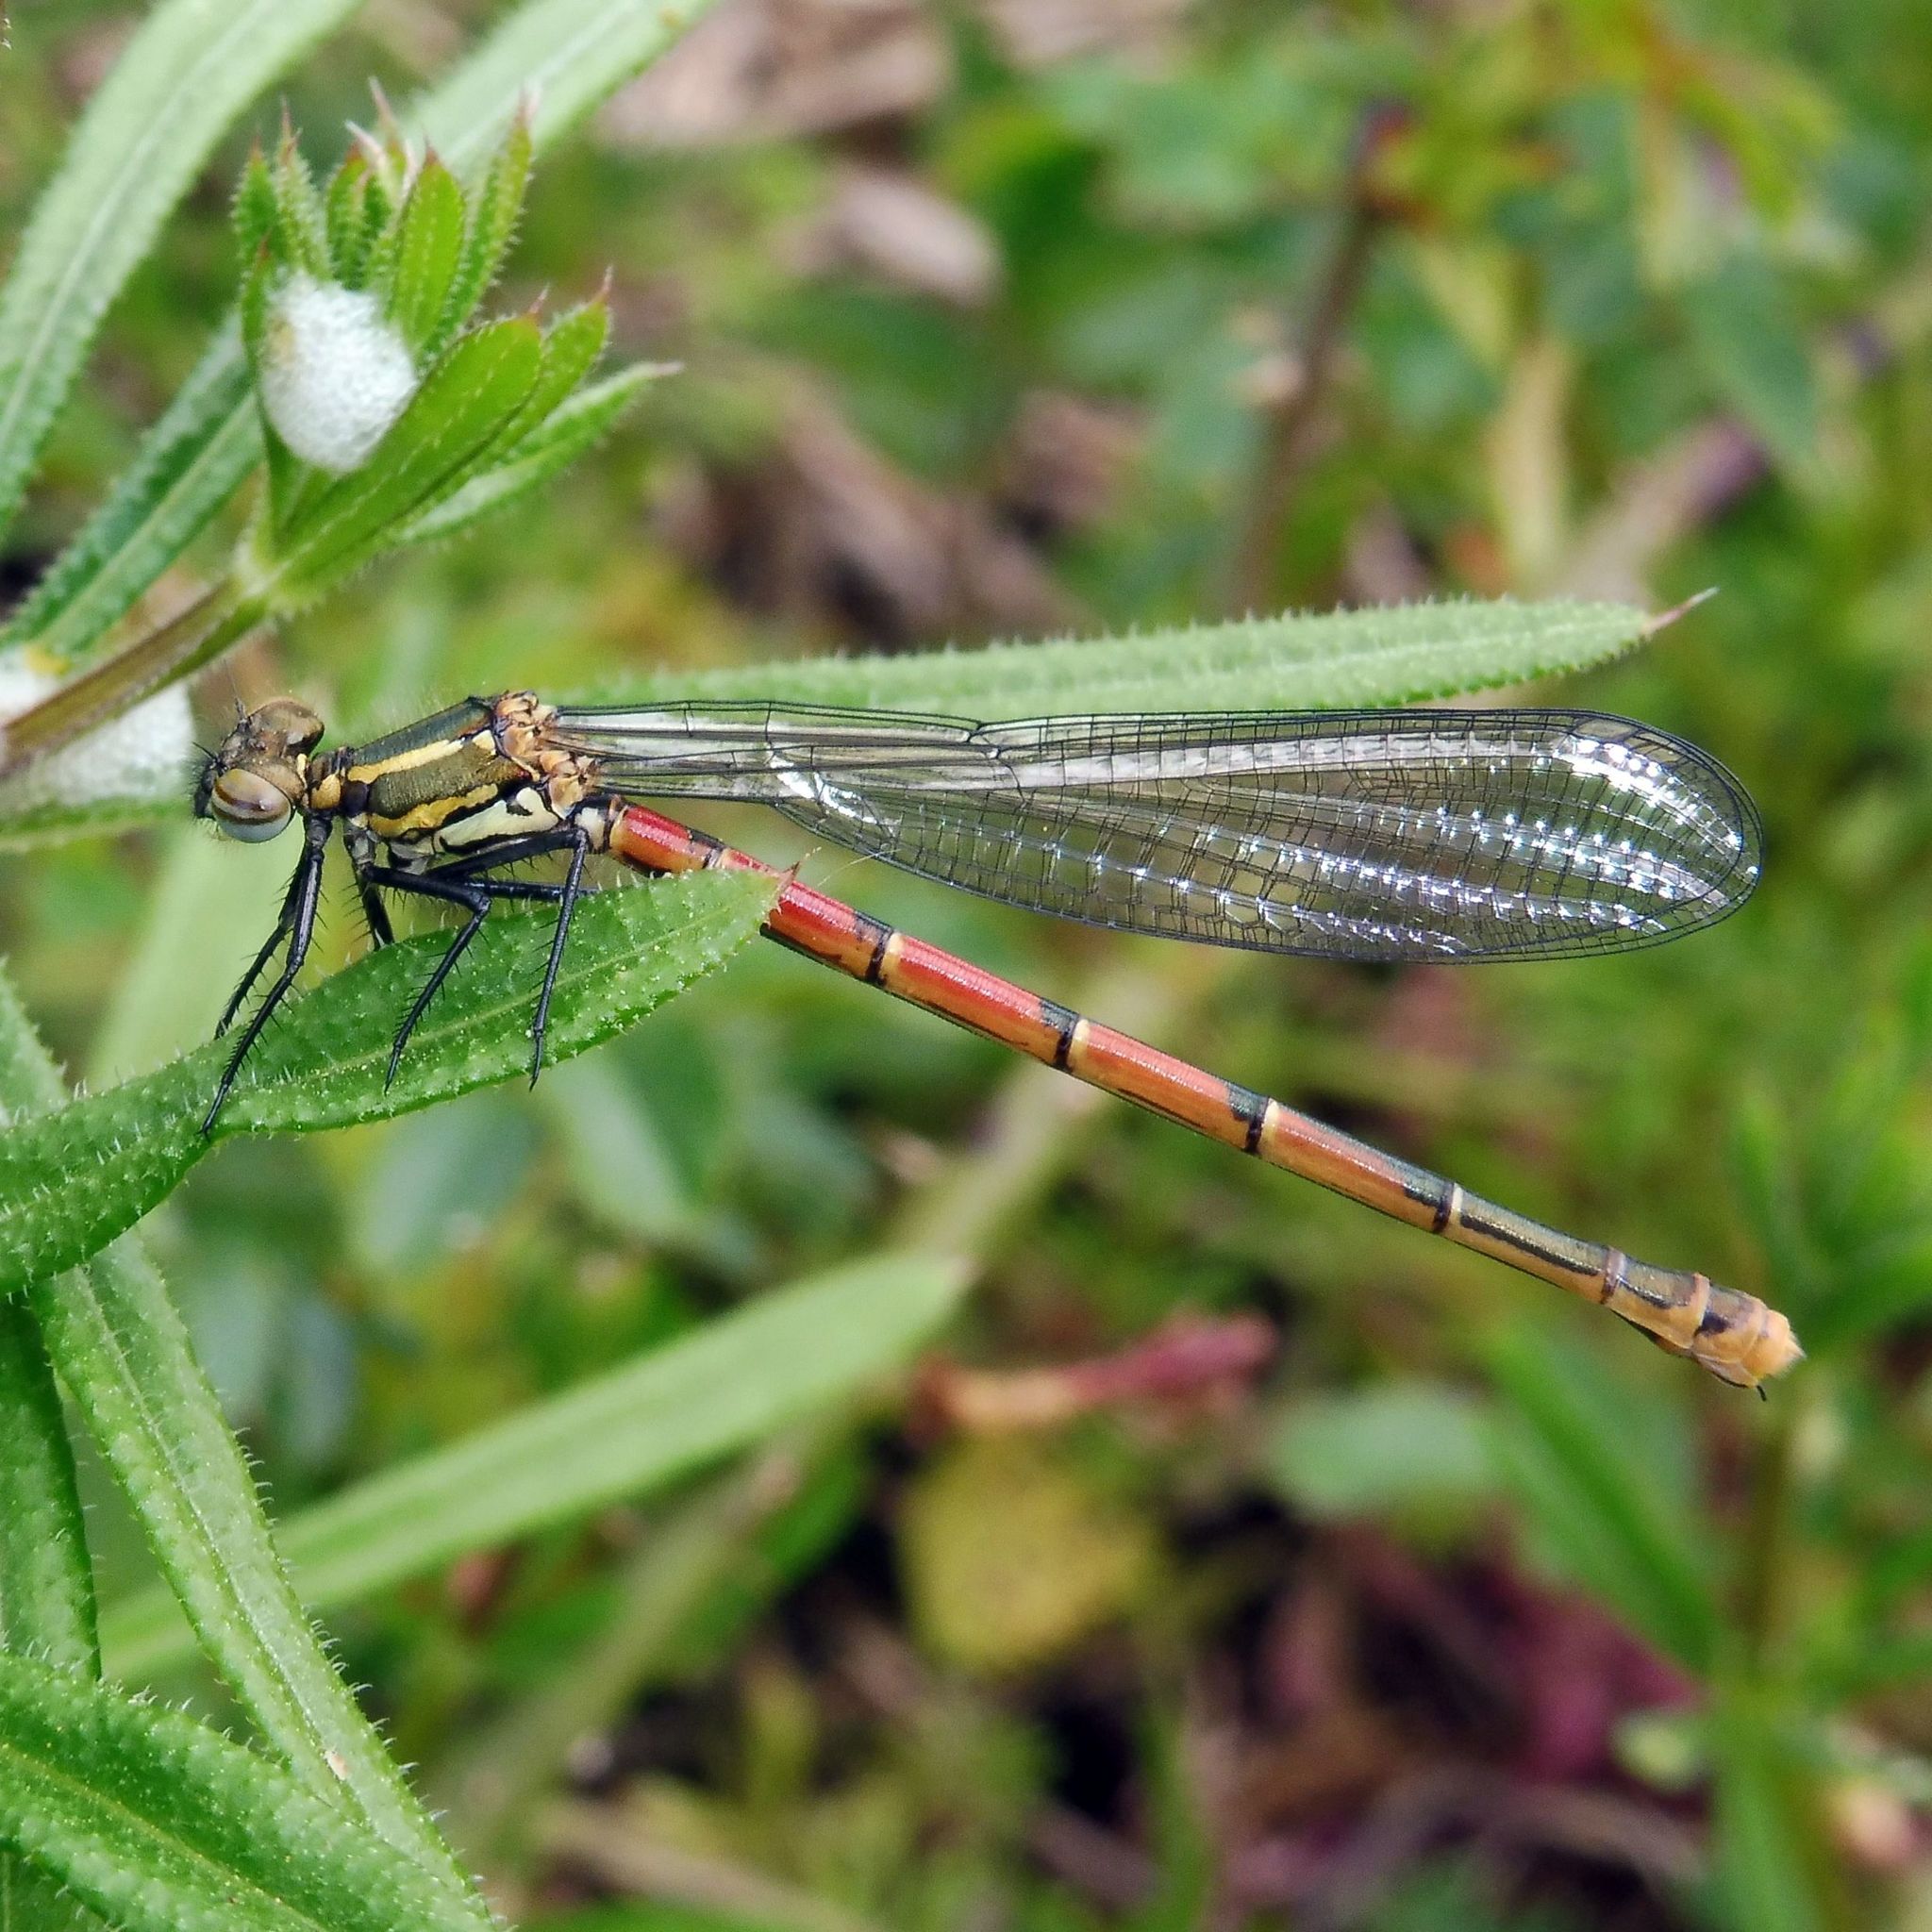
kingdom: Animalia
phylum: Arthropoda
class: Insecta
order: Odonata
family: Coenagrionidae
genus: Pyrrhosoma
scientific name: Pyrrhosoma nymphula
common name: Large red damsel
